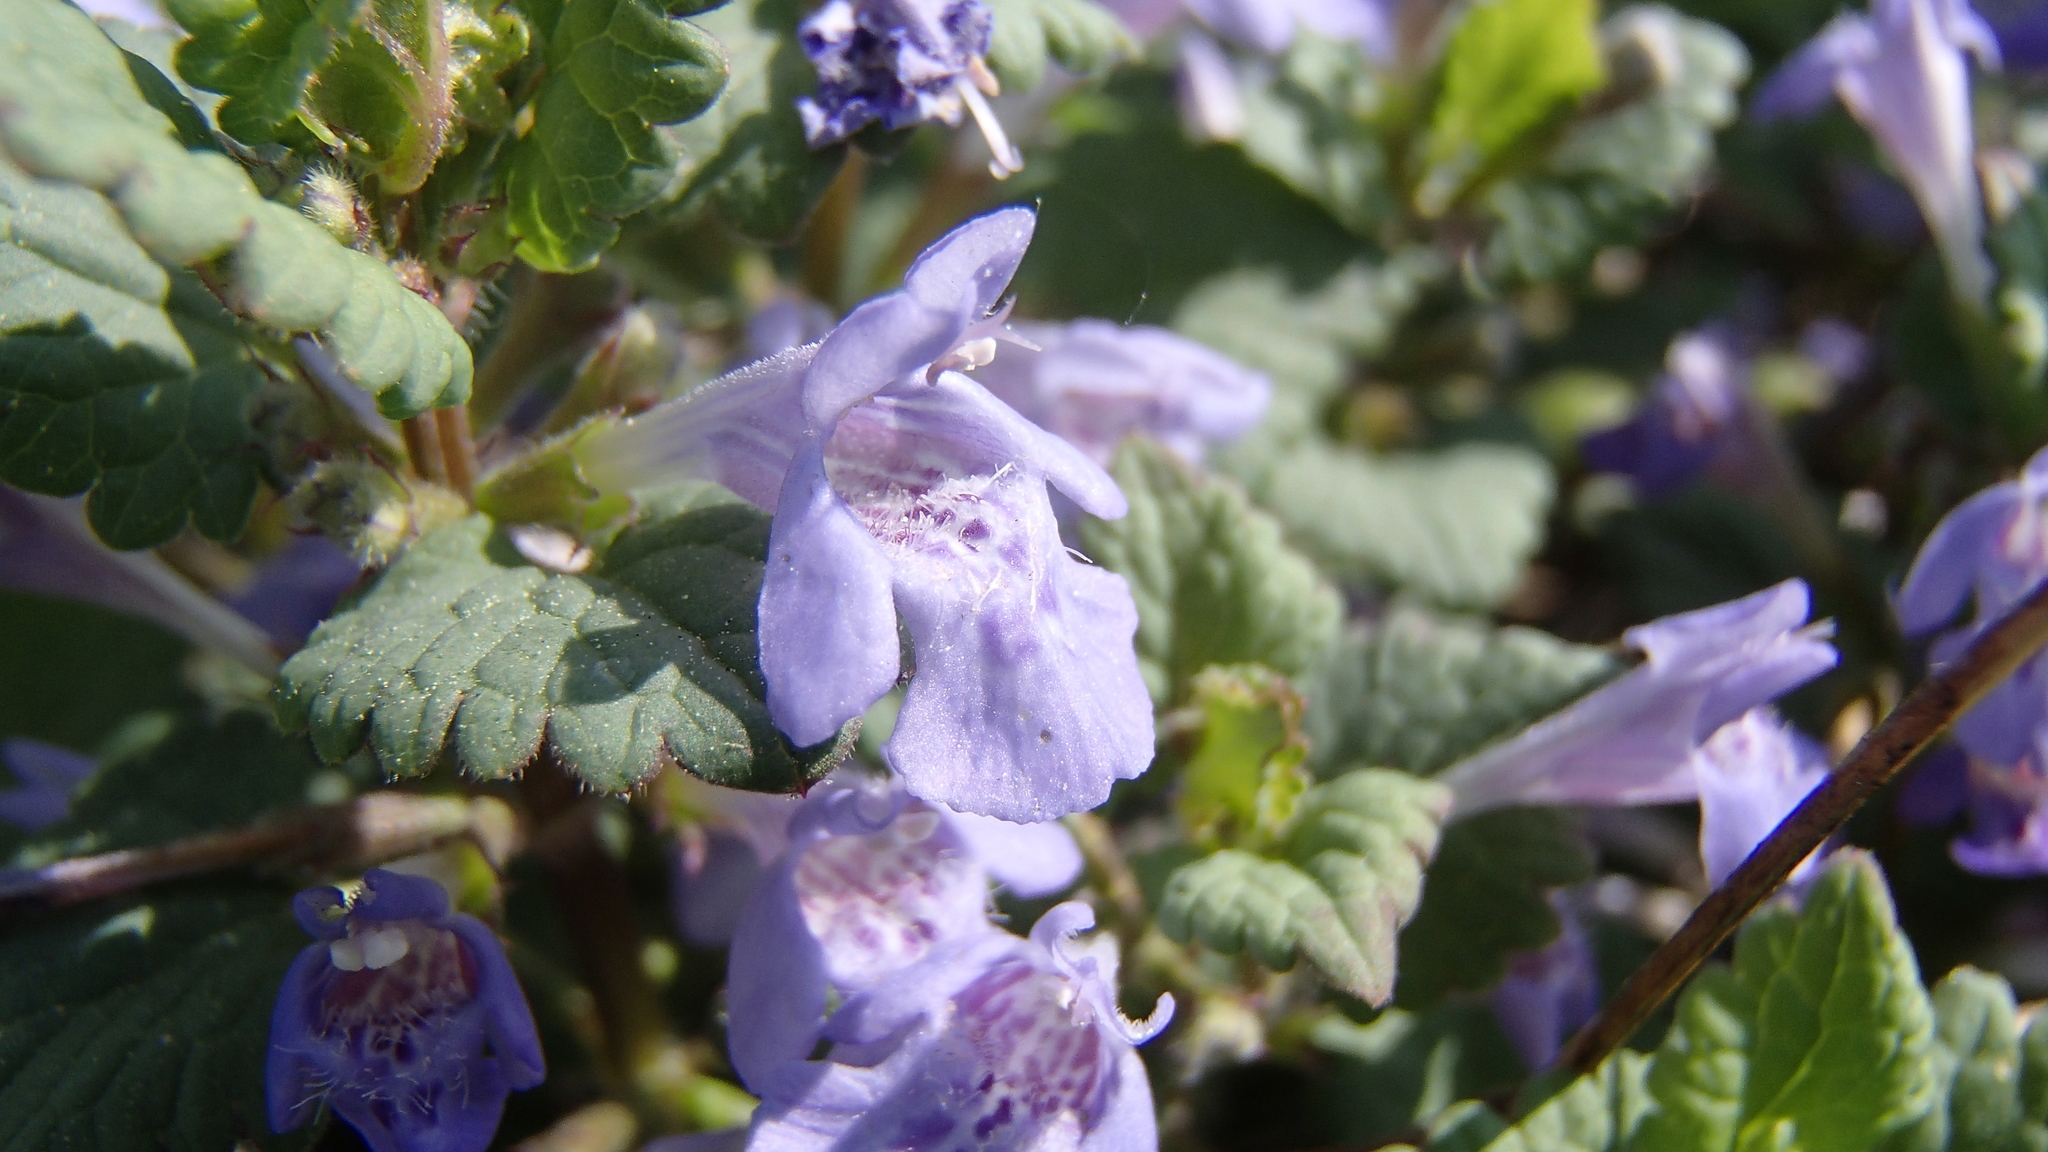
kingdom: Plantae
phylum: Tracheophyta
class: Magnoliopsida
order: Lamiales
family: Lamiaceae
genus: Glechoma
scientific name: Glechoma hederacea
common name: Ground ivy
